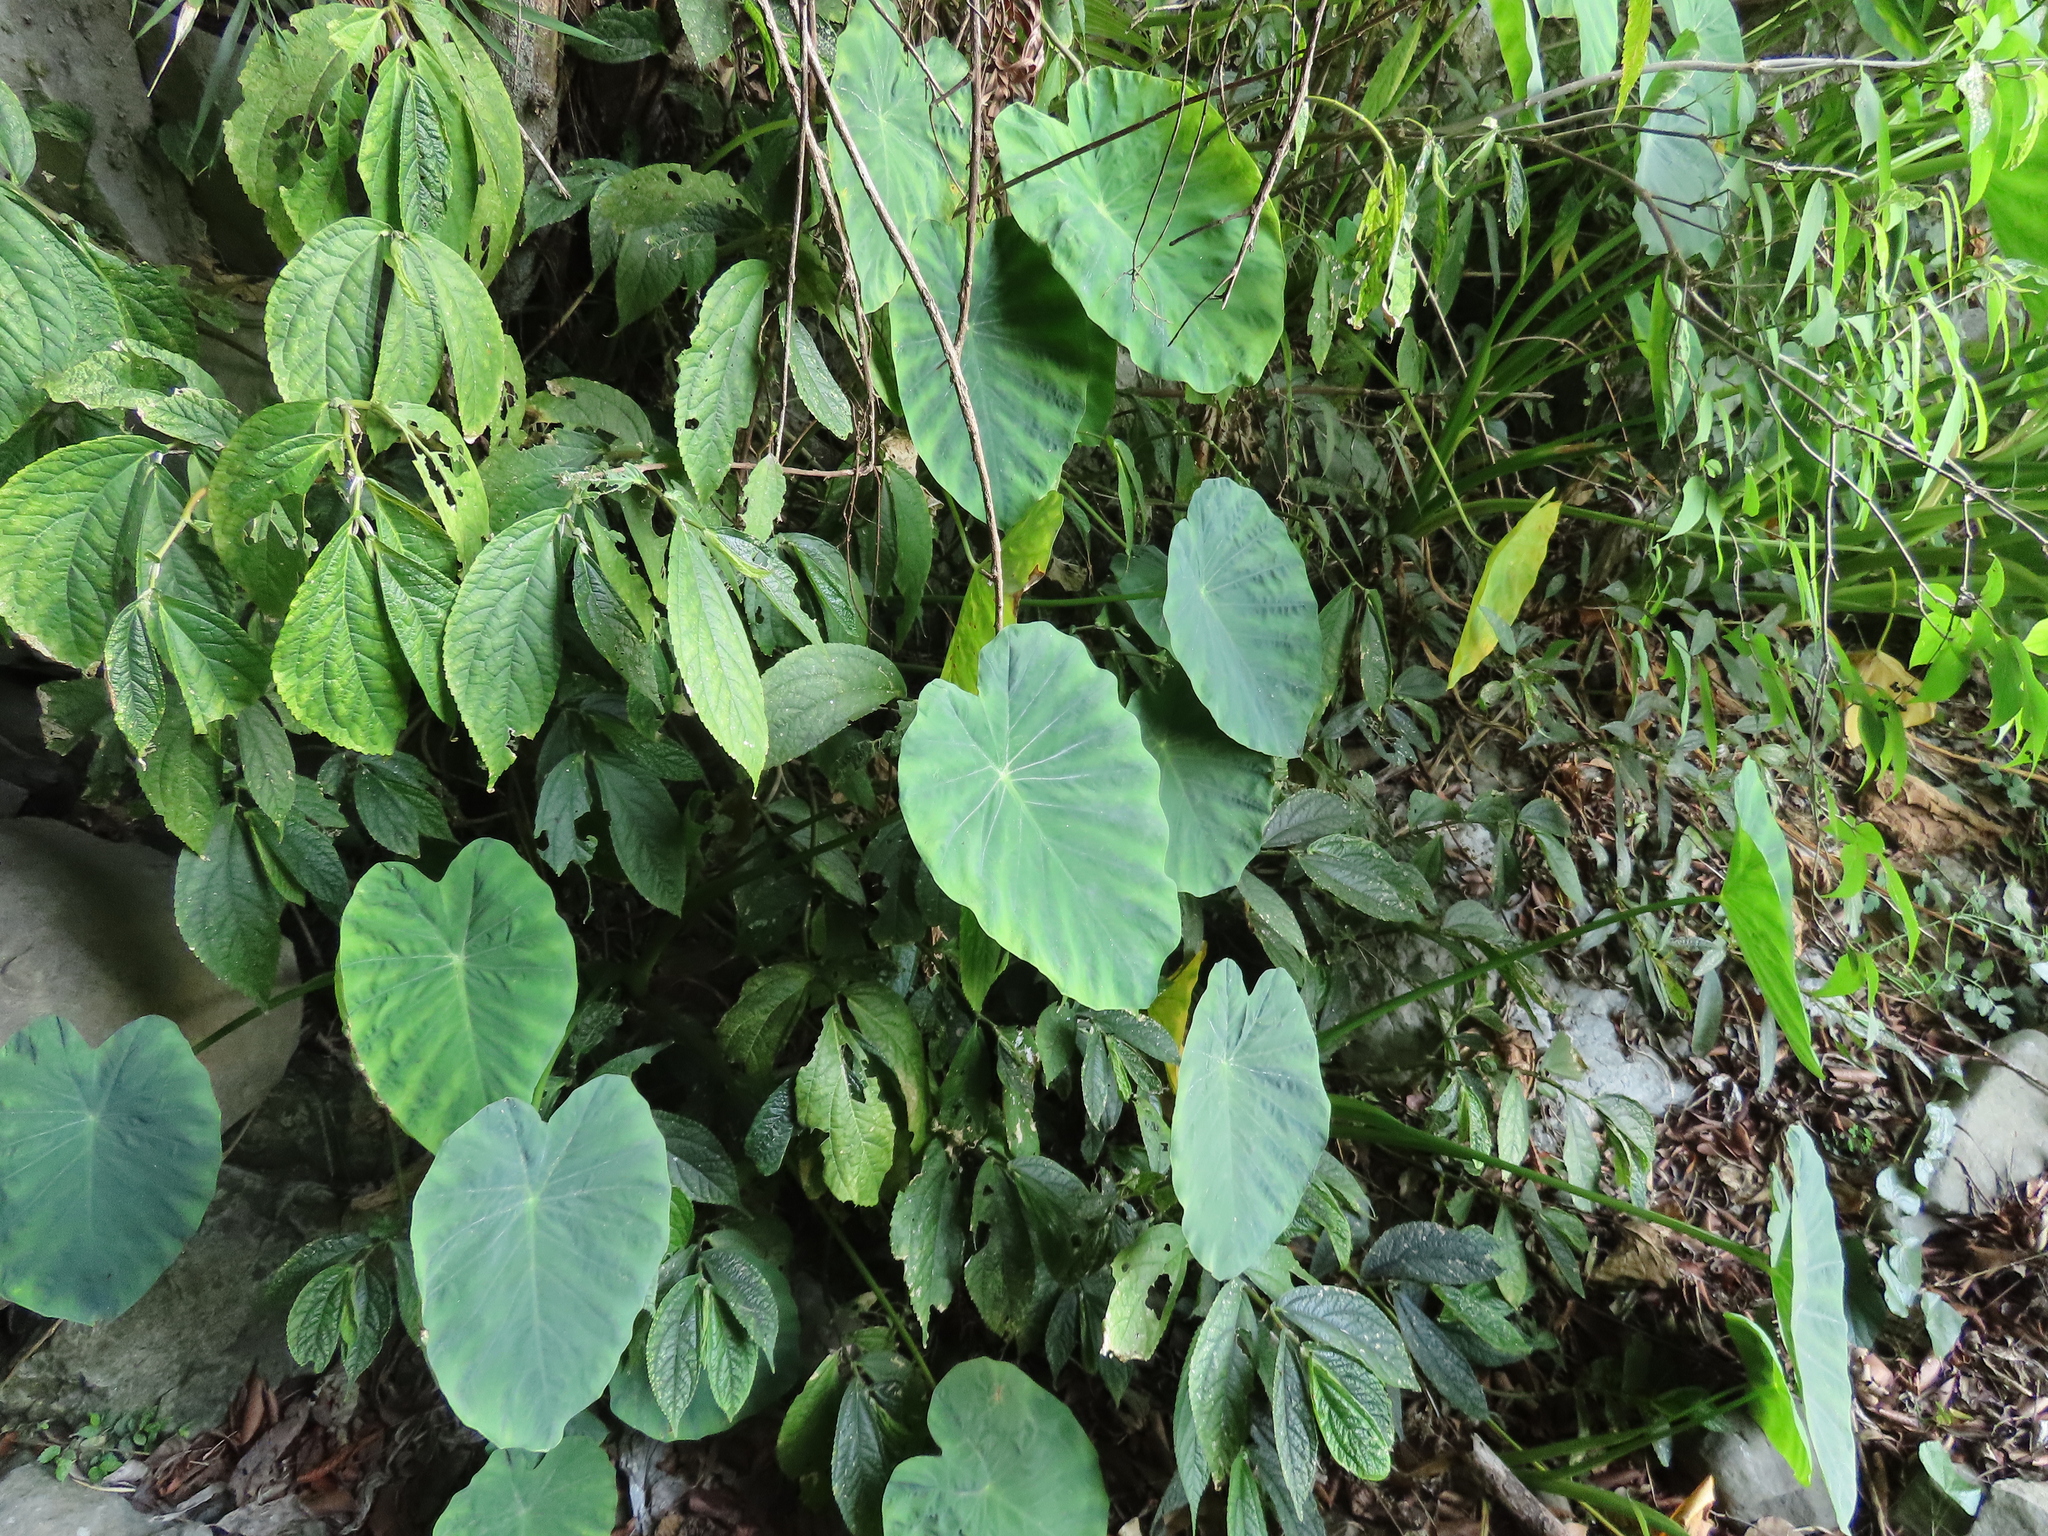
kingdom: Plantae
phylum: Tracheophyta
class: Liliopsida
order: Alismatales
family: Araceae
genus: Colocasia
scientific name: Colocasia esculenta
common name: Taro
